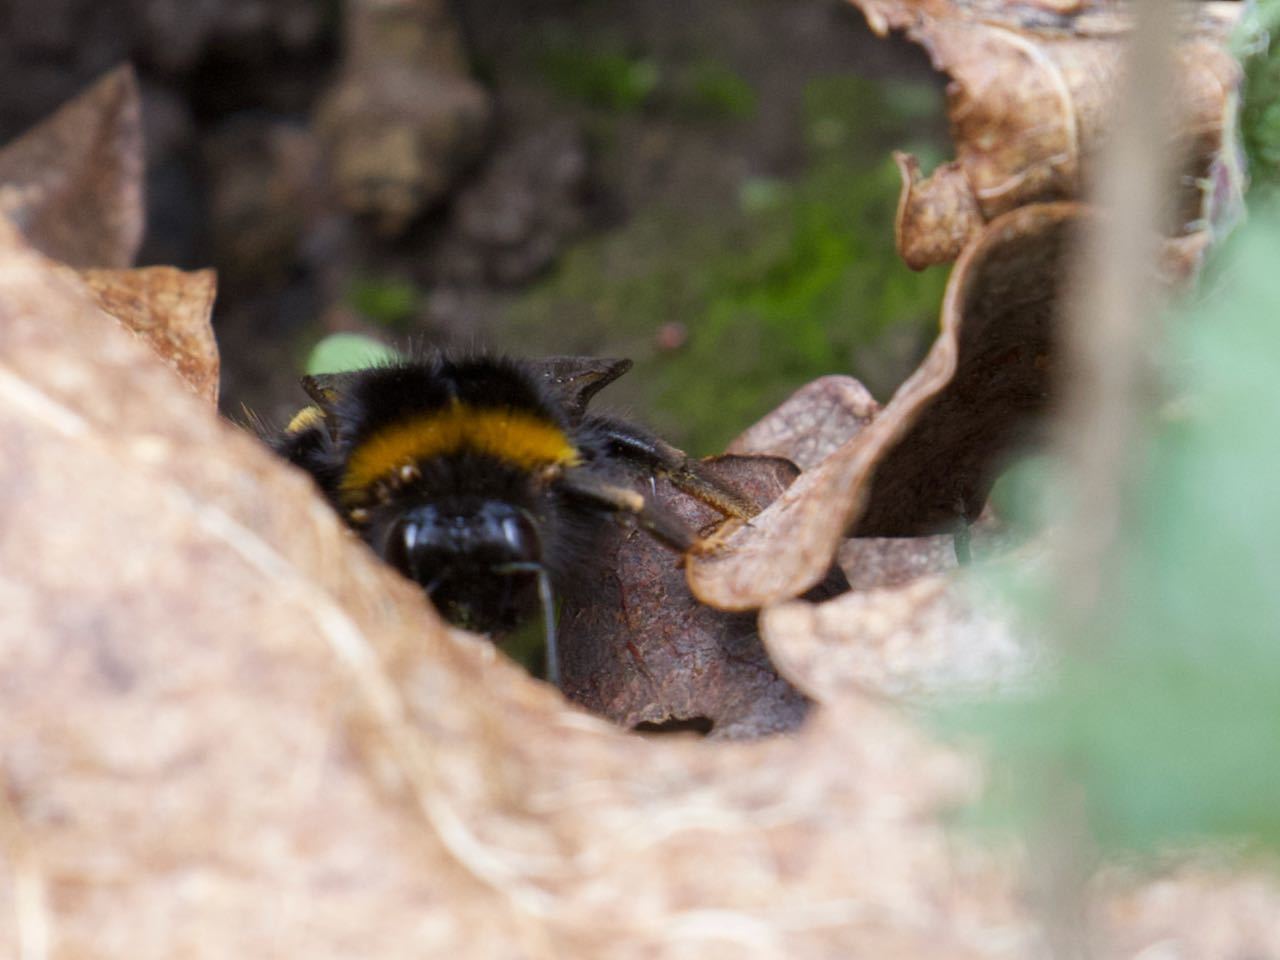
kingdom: Animalia
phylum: Arthropoda
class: Insecta
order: Hymenoptera
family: Apidae
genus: Bombus
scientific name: Bombus terrestris
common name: Buff-tailed bumblebee
